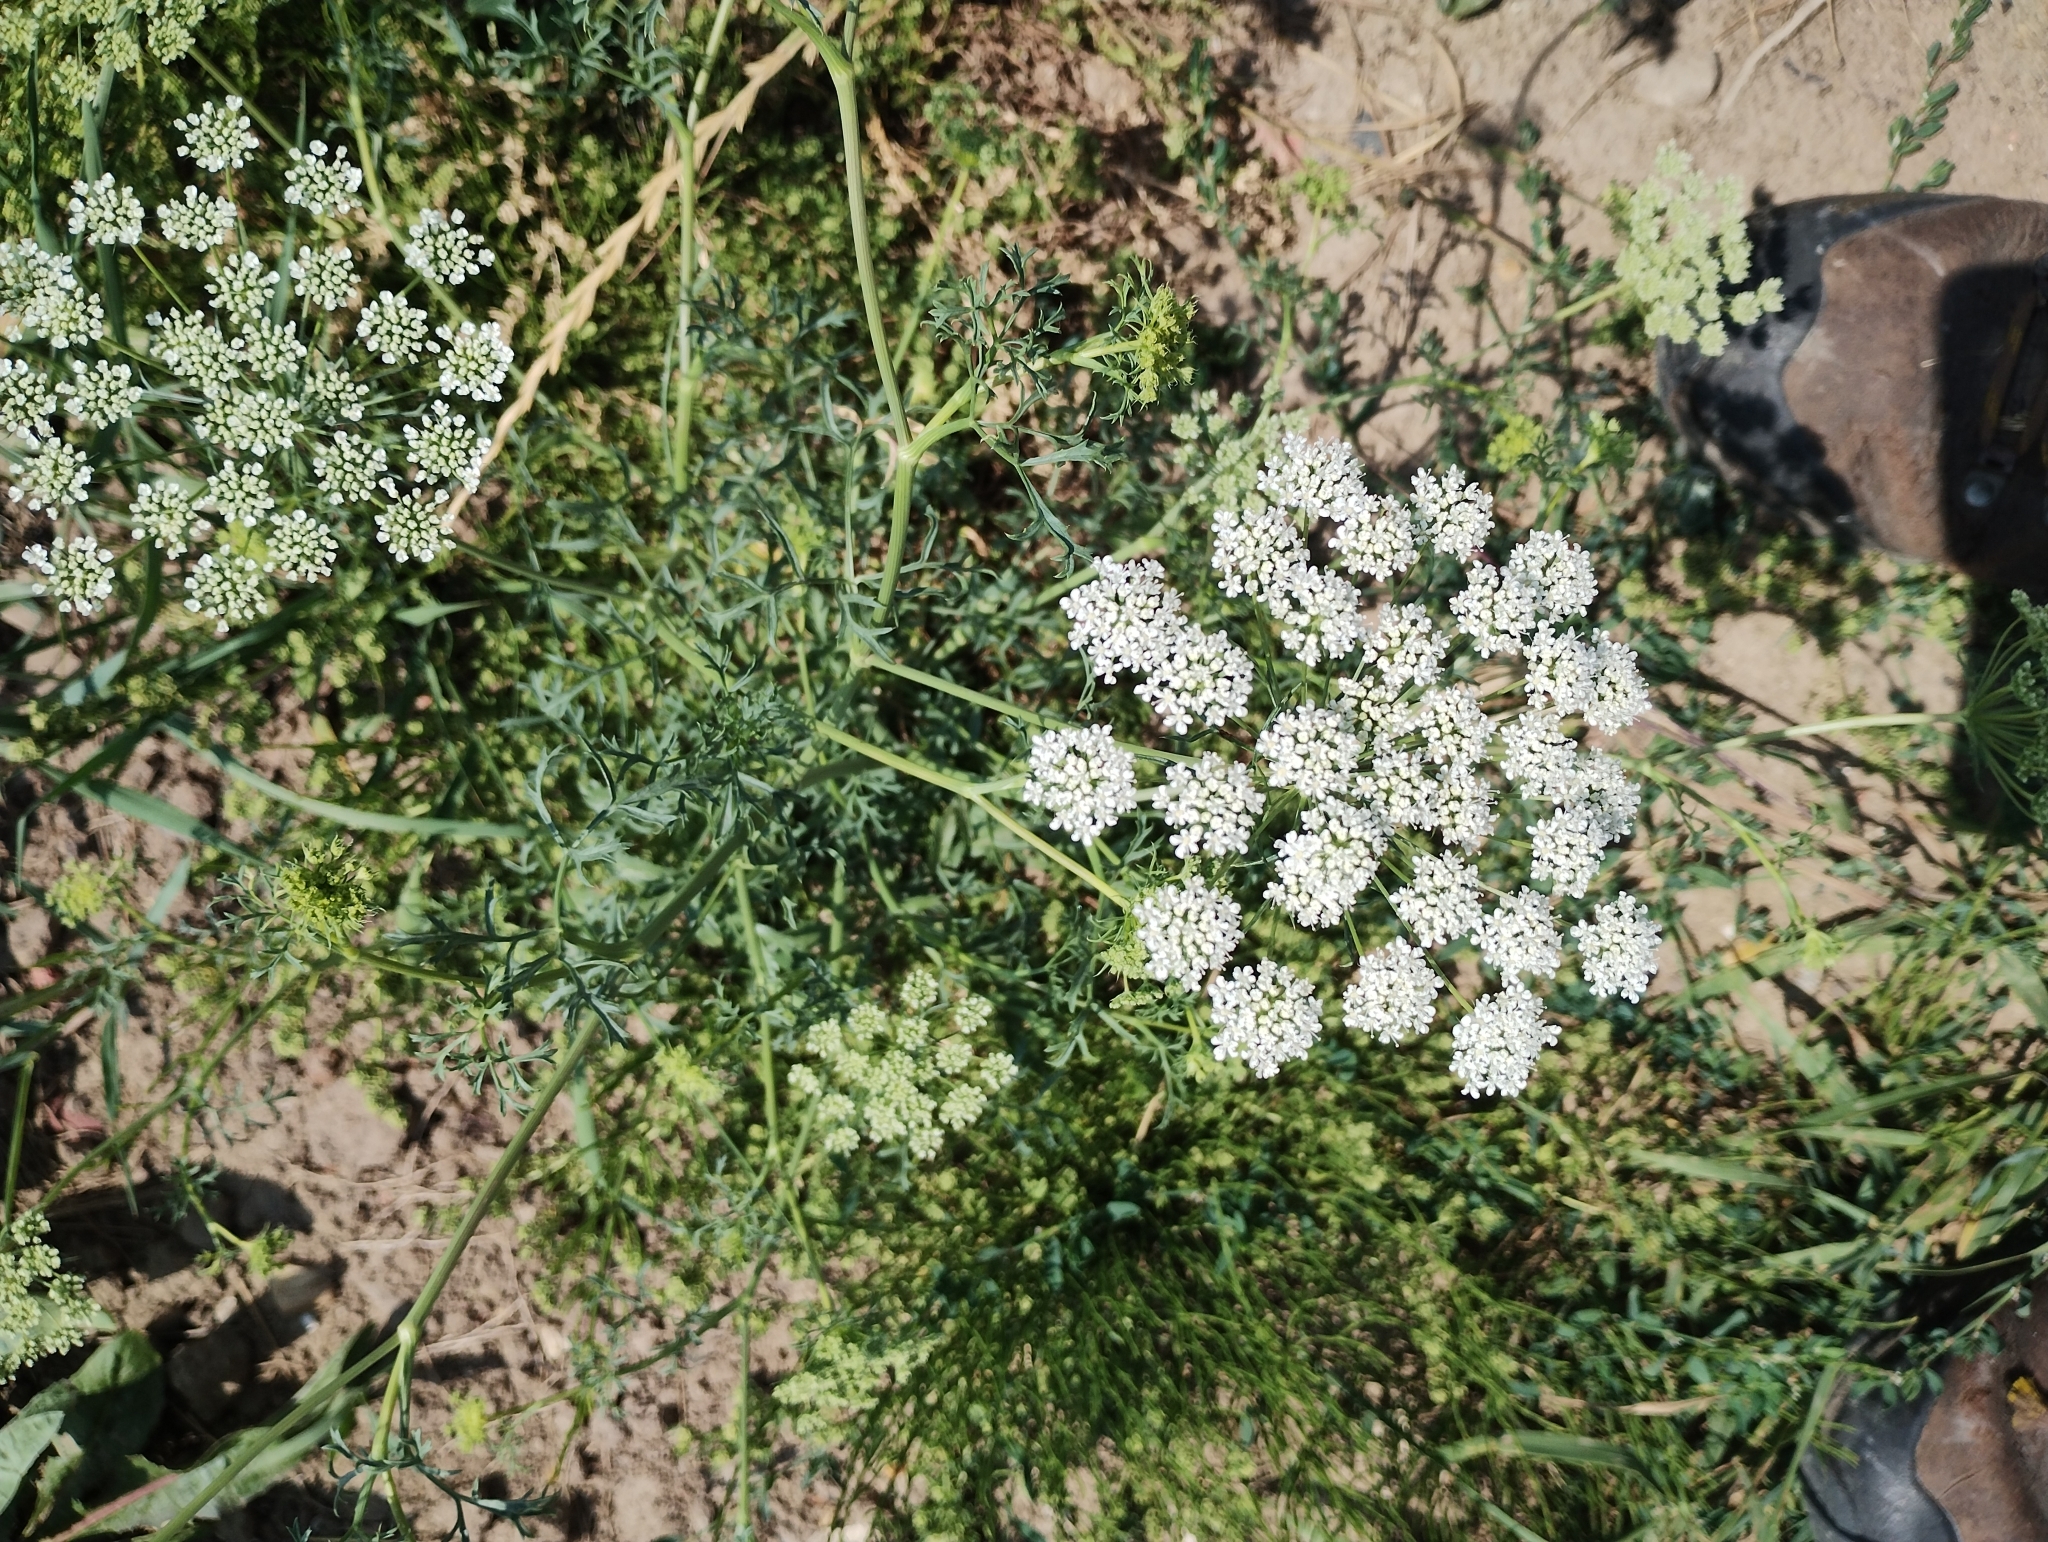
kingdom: Plantae
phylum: Tracheophyta
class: Magnoliopsida
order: Apiales
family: Apiaceae
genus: Ammi
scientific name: Ammi majus
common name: Bullwort
